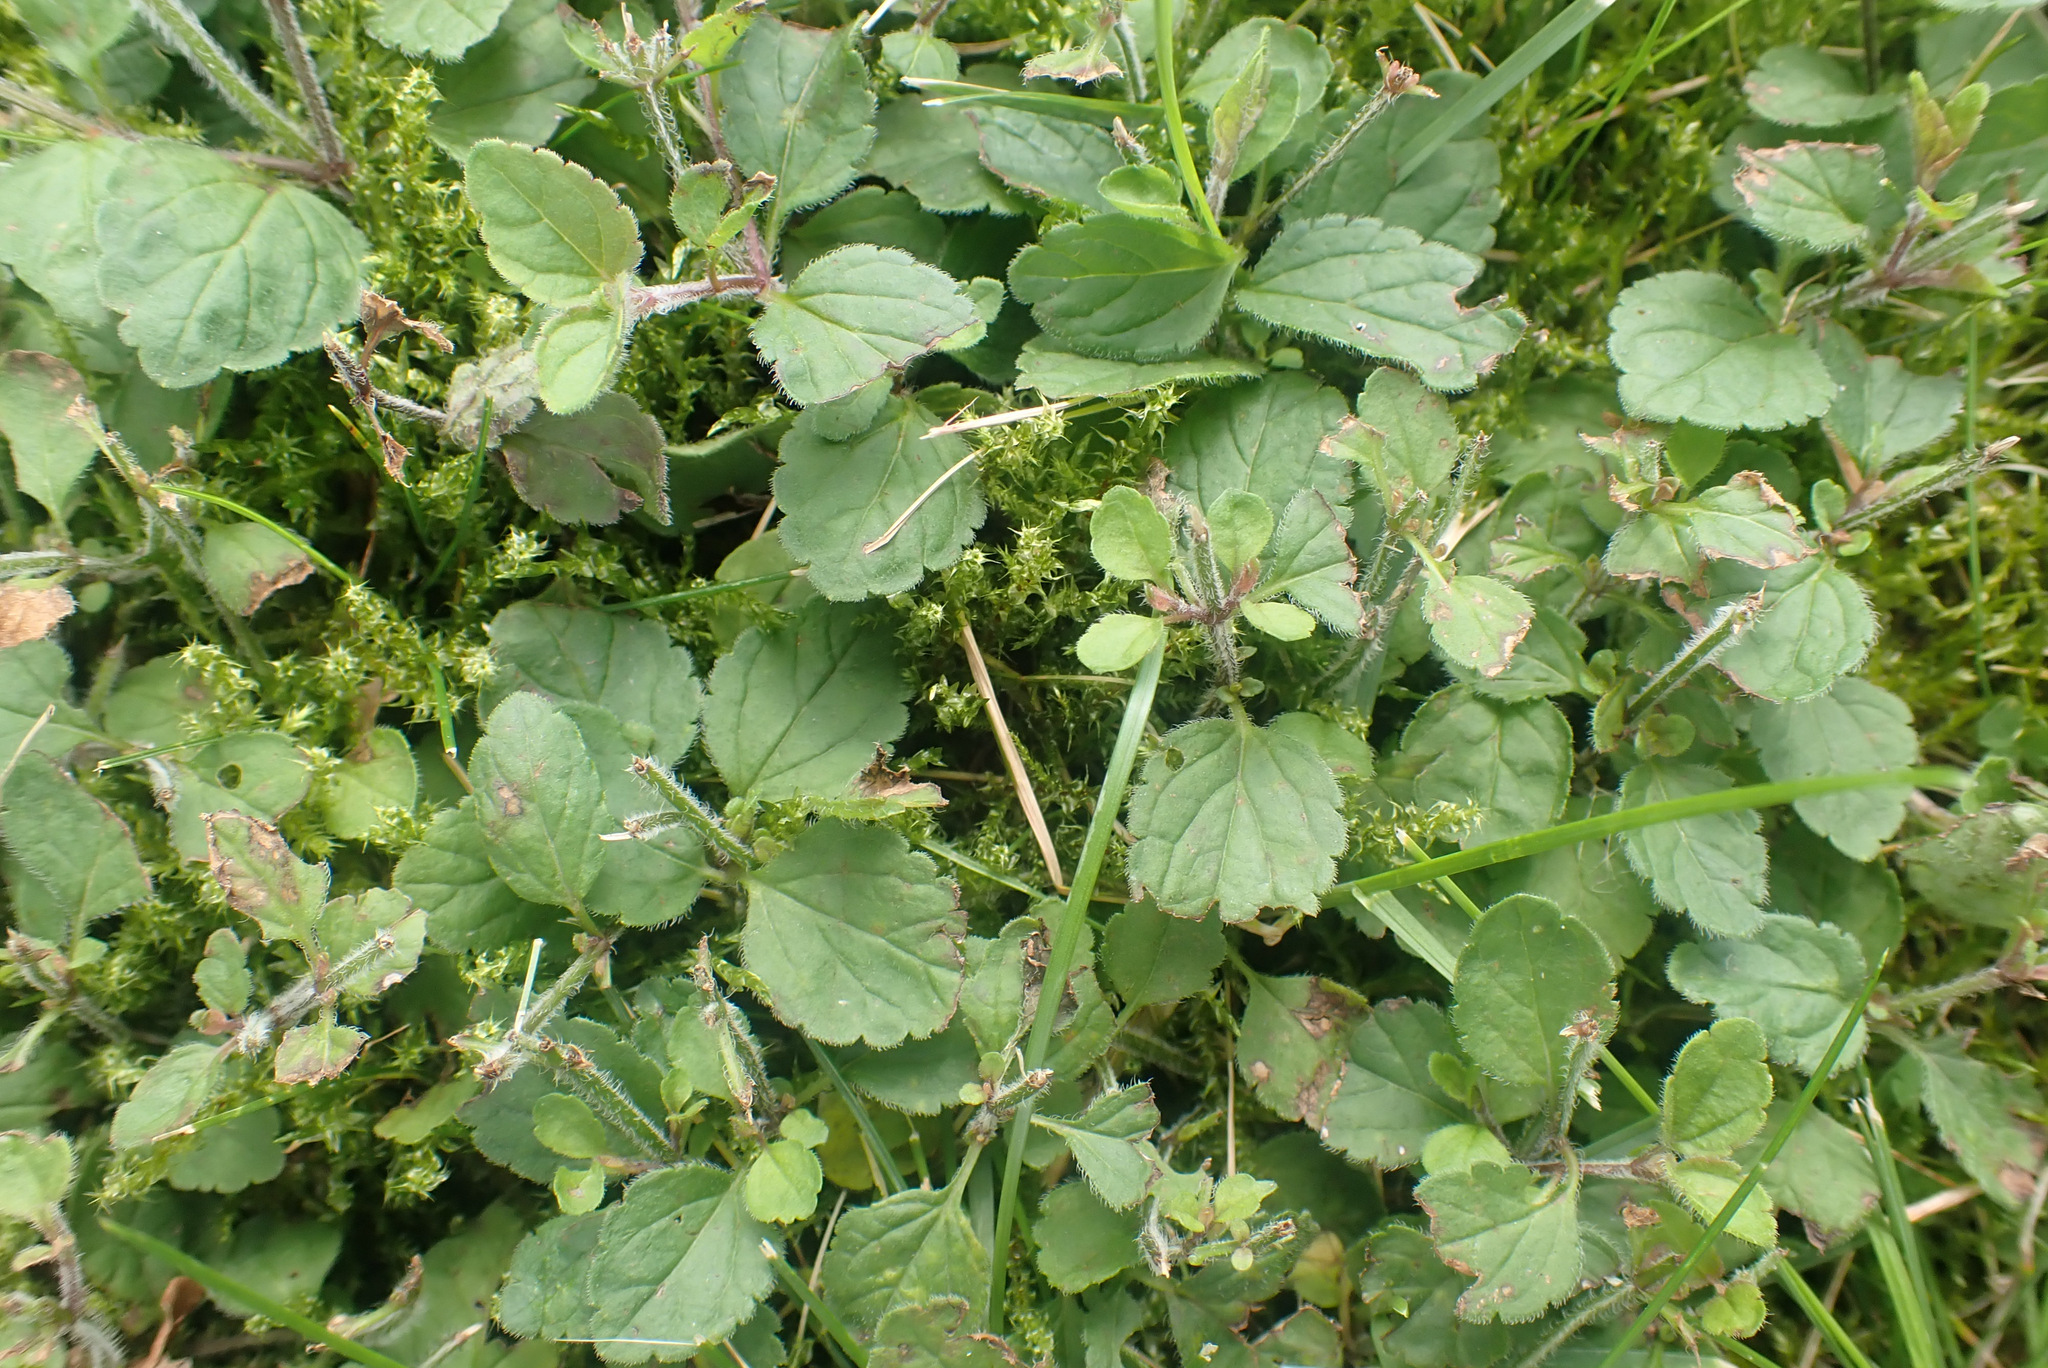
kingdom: Plantae
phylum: Tracheophyta
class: Magnoliopsida
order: Lamiales
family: Plantaginaceae
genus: Veronica
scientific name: Veronica chamaedrys
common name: Germander speedwell
